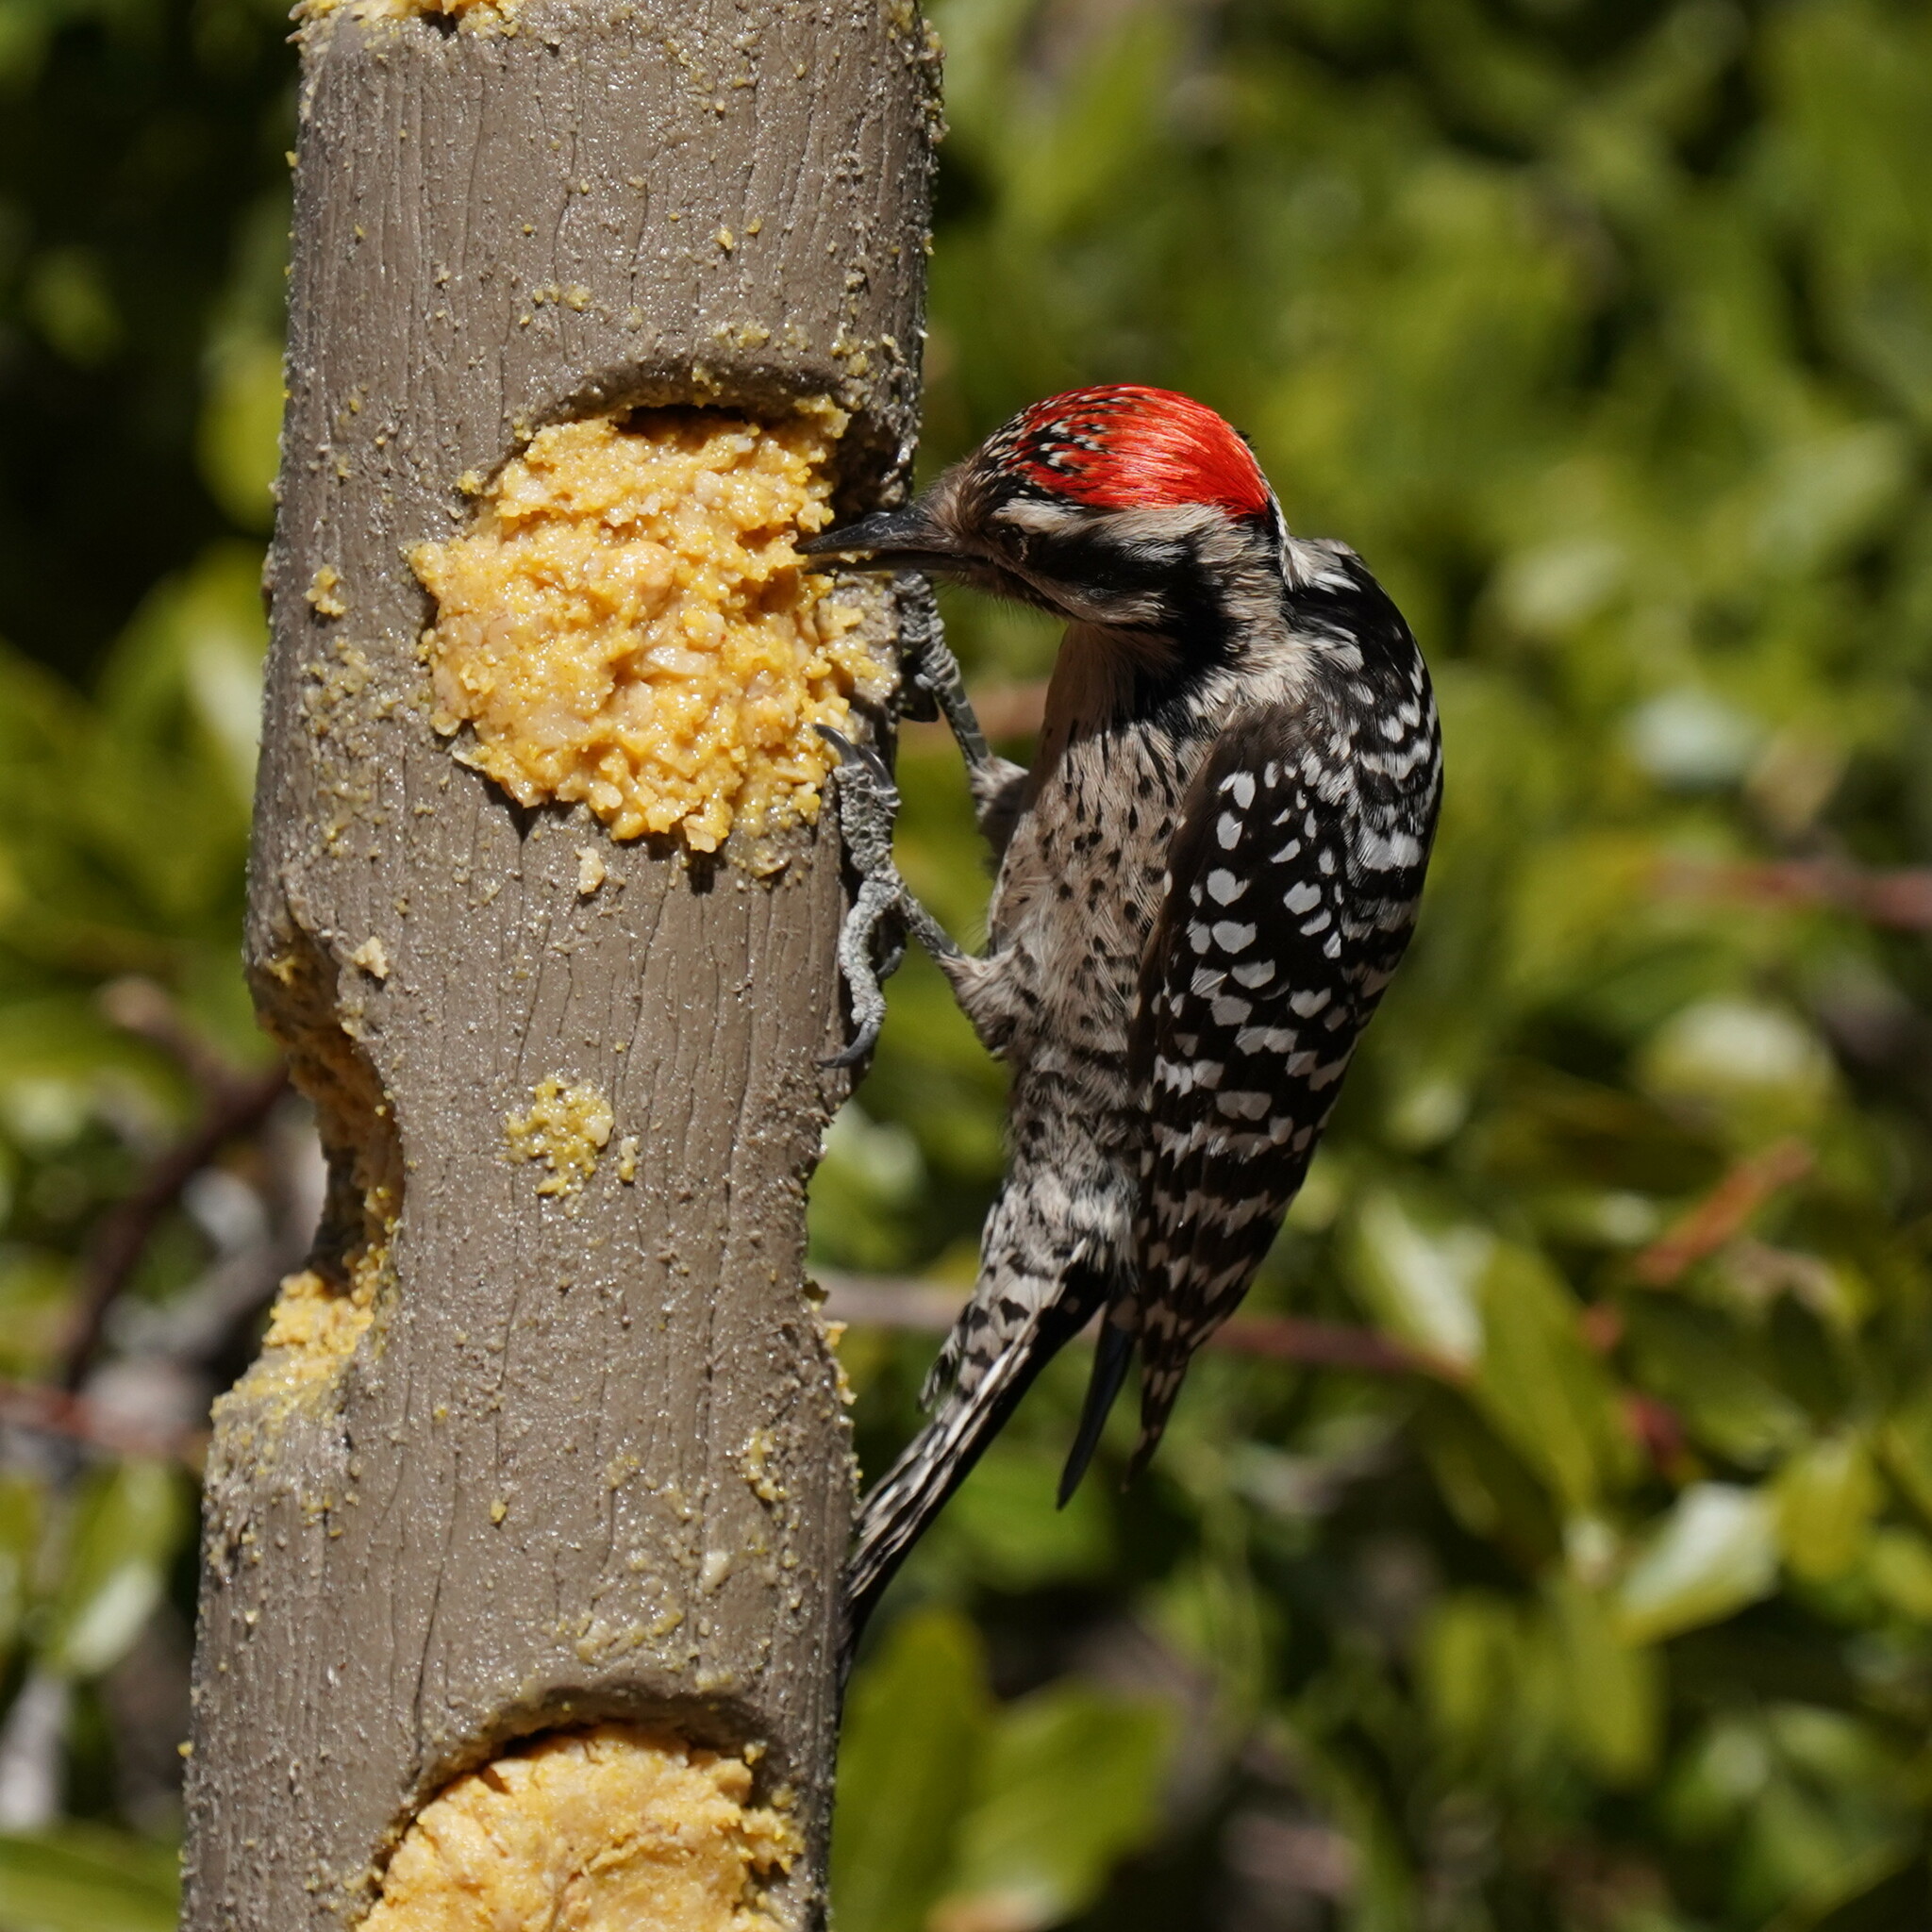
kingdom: Animalia
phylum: Chordata
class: Aves
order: Piciformes
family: Picidae
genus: Dryobates
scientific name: Dryobates scalaris
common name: Ladder-backed woodpecker
